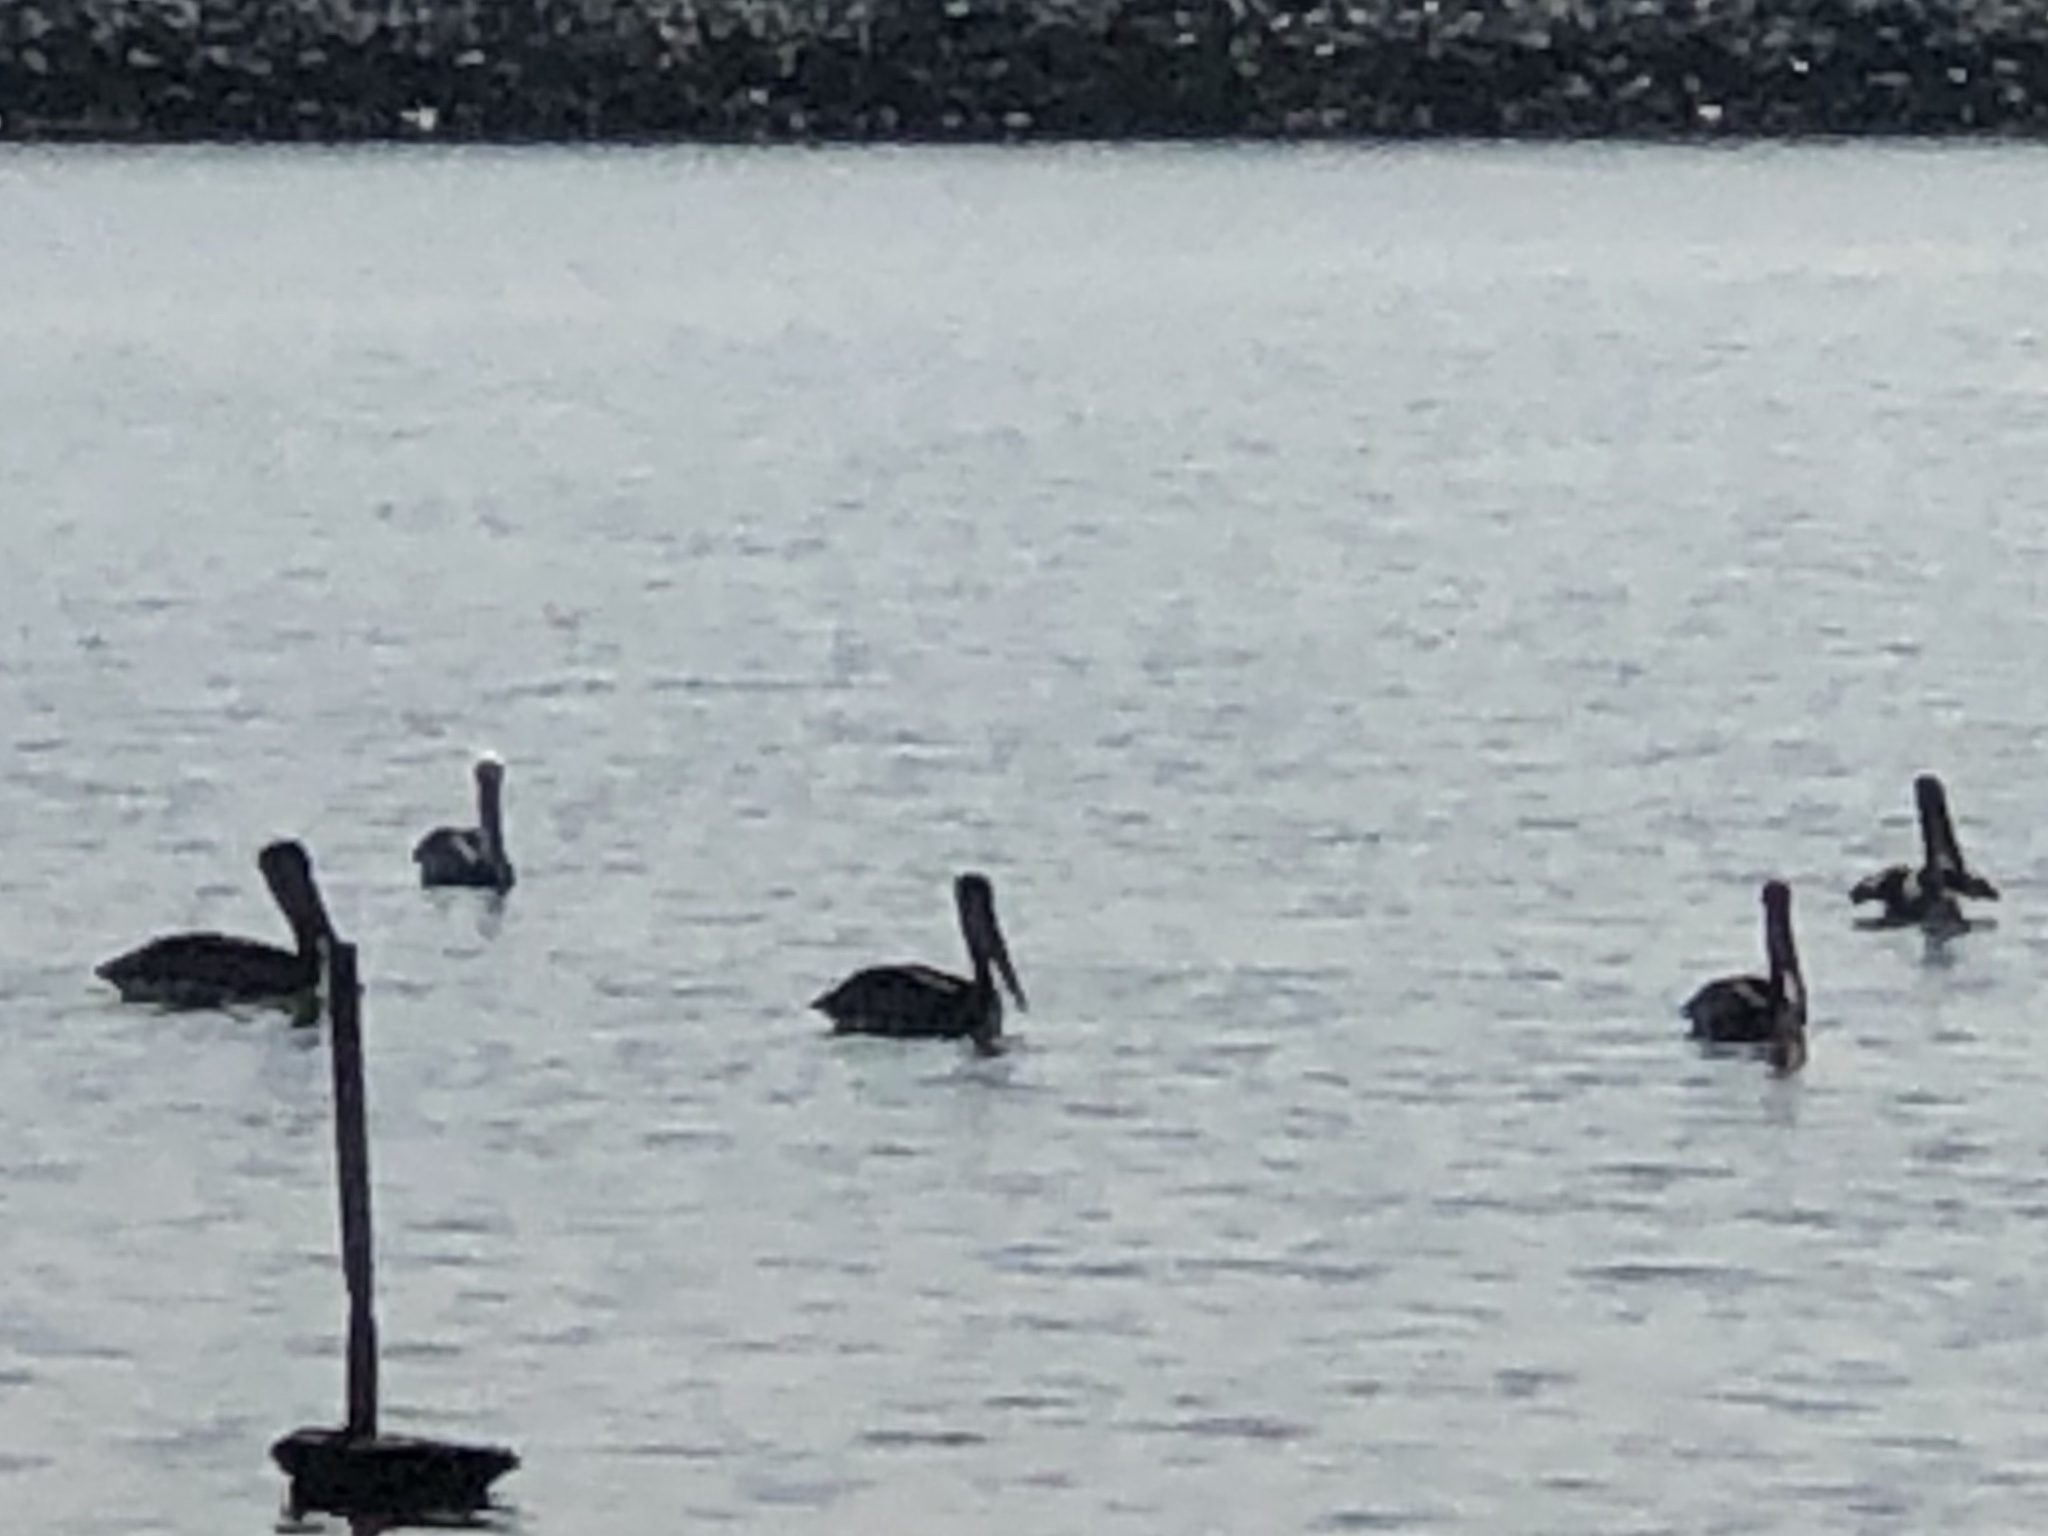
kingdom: Animalia
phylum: Chordata
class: Aves
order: Pelecaniformes
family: Pelecanidae
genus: Pelecanus
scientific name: Pelecanus occidentalis
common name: Brown pelican
